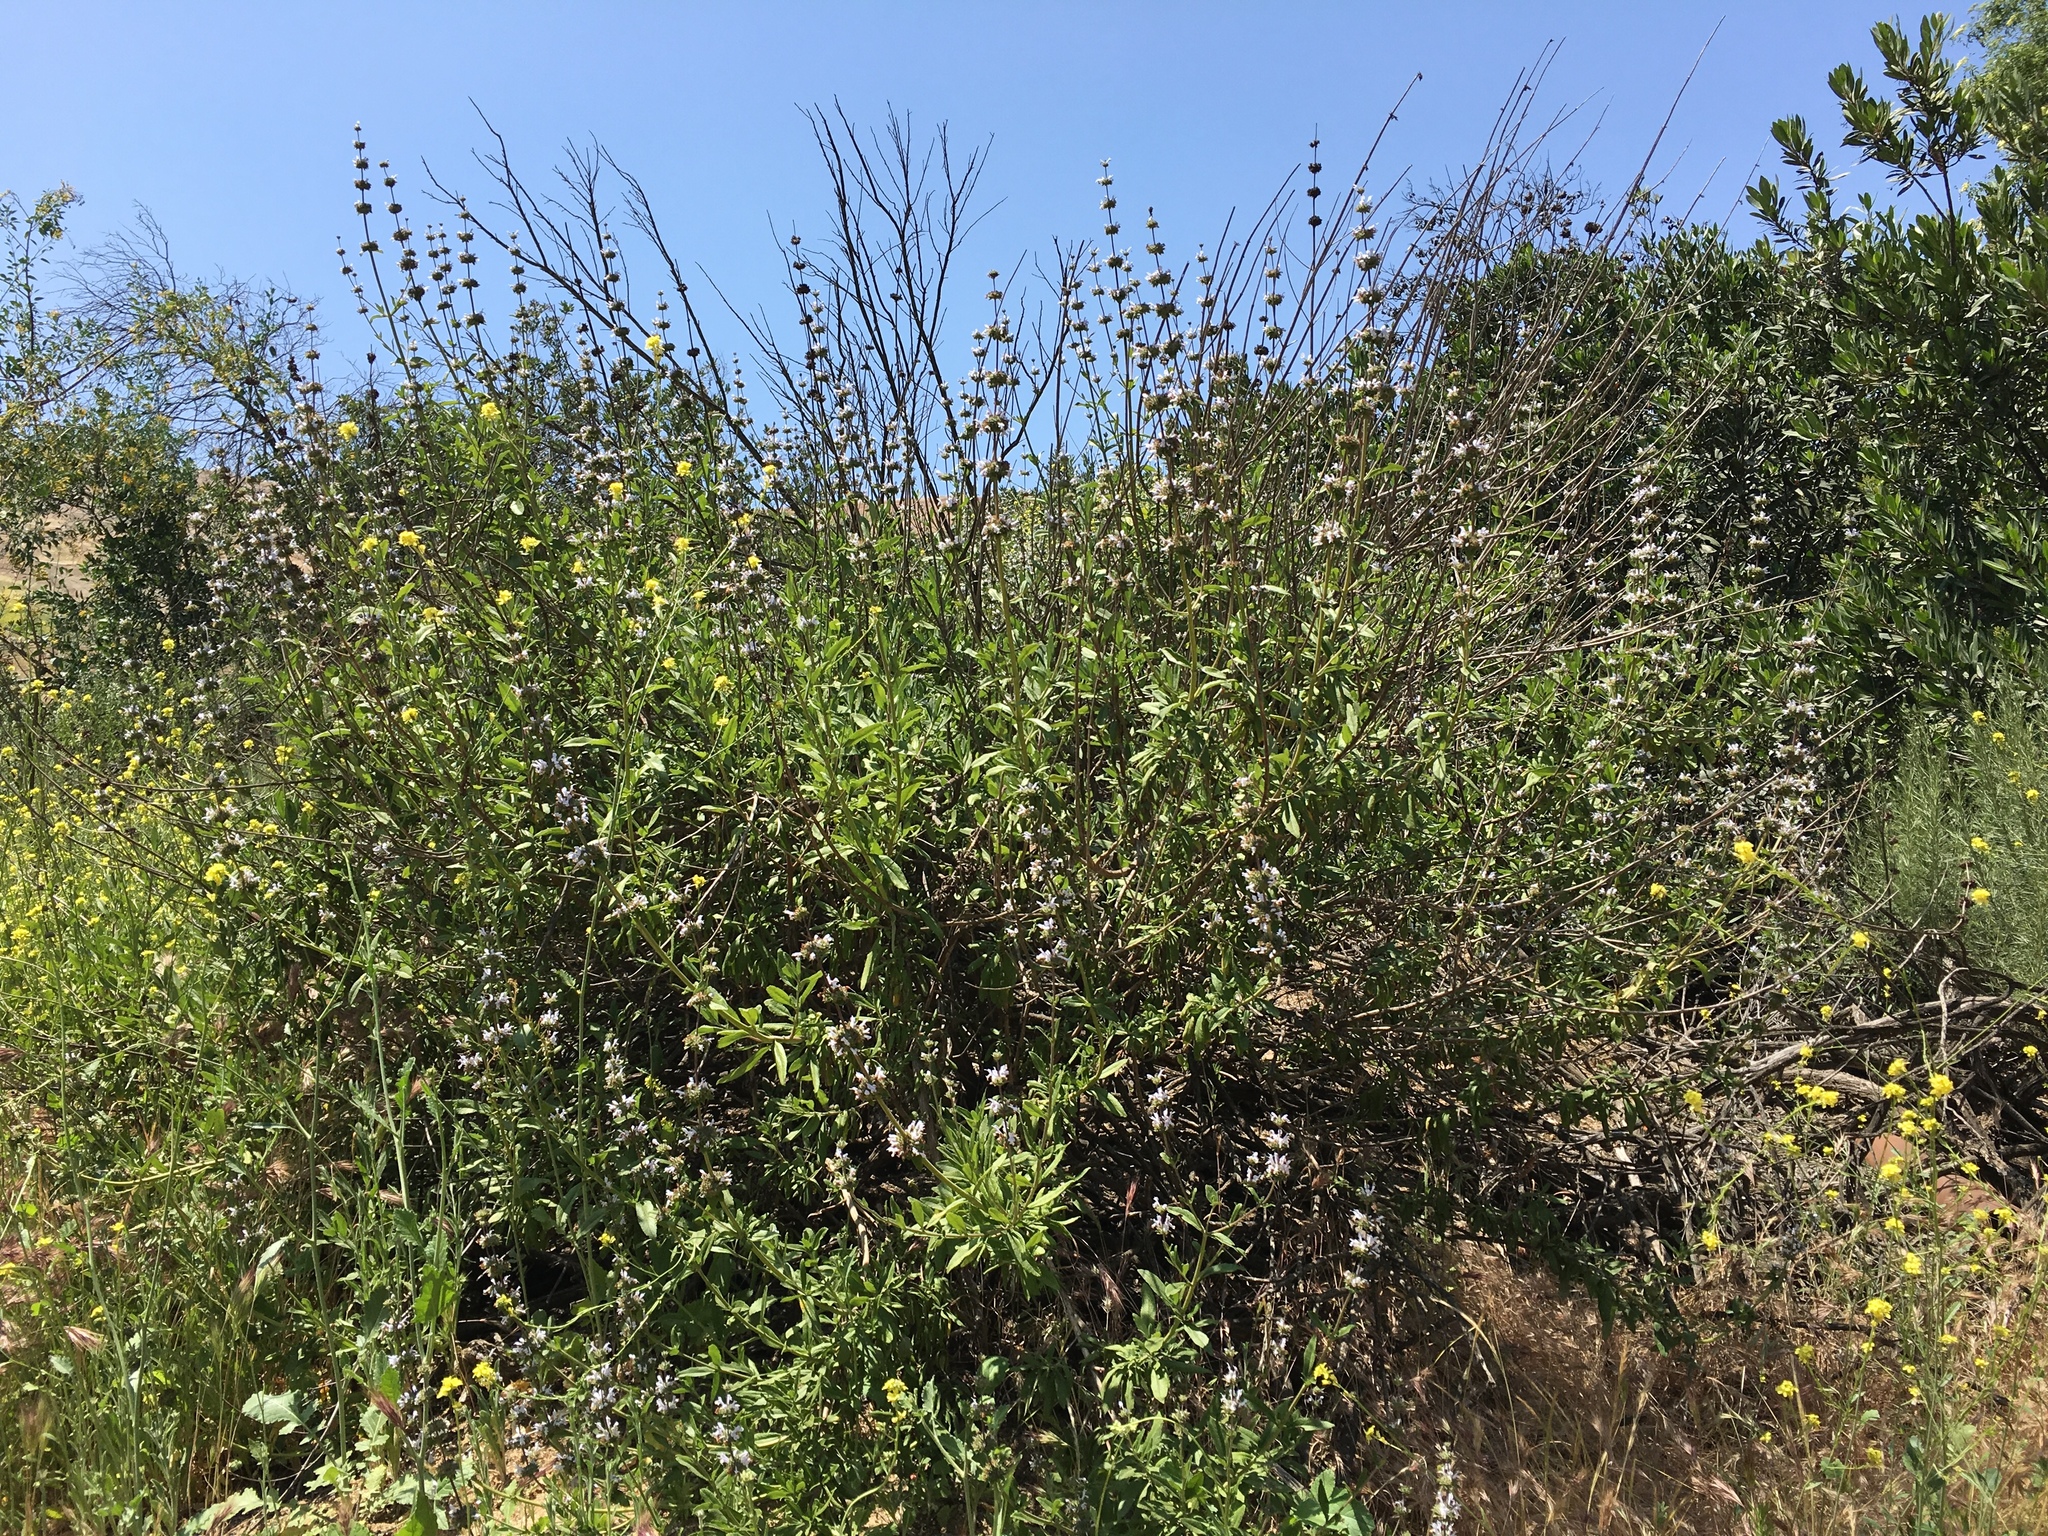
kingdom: Plantae
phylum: Tracheophyta
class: Magnoliopsida
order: Lamiales
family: Lamiaceae
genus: Salvia
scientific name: Salvia mellifera
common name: Black sage
